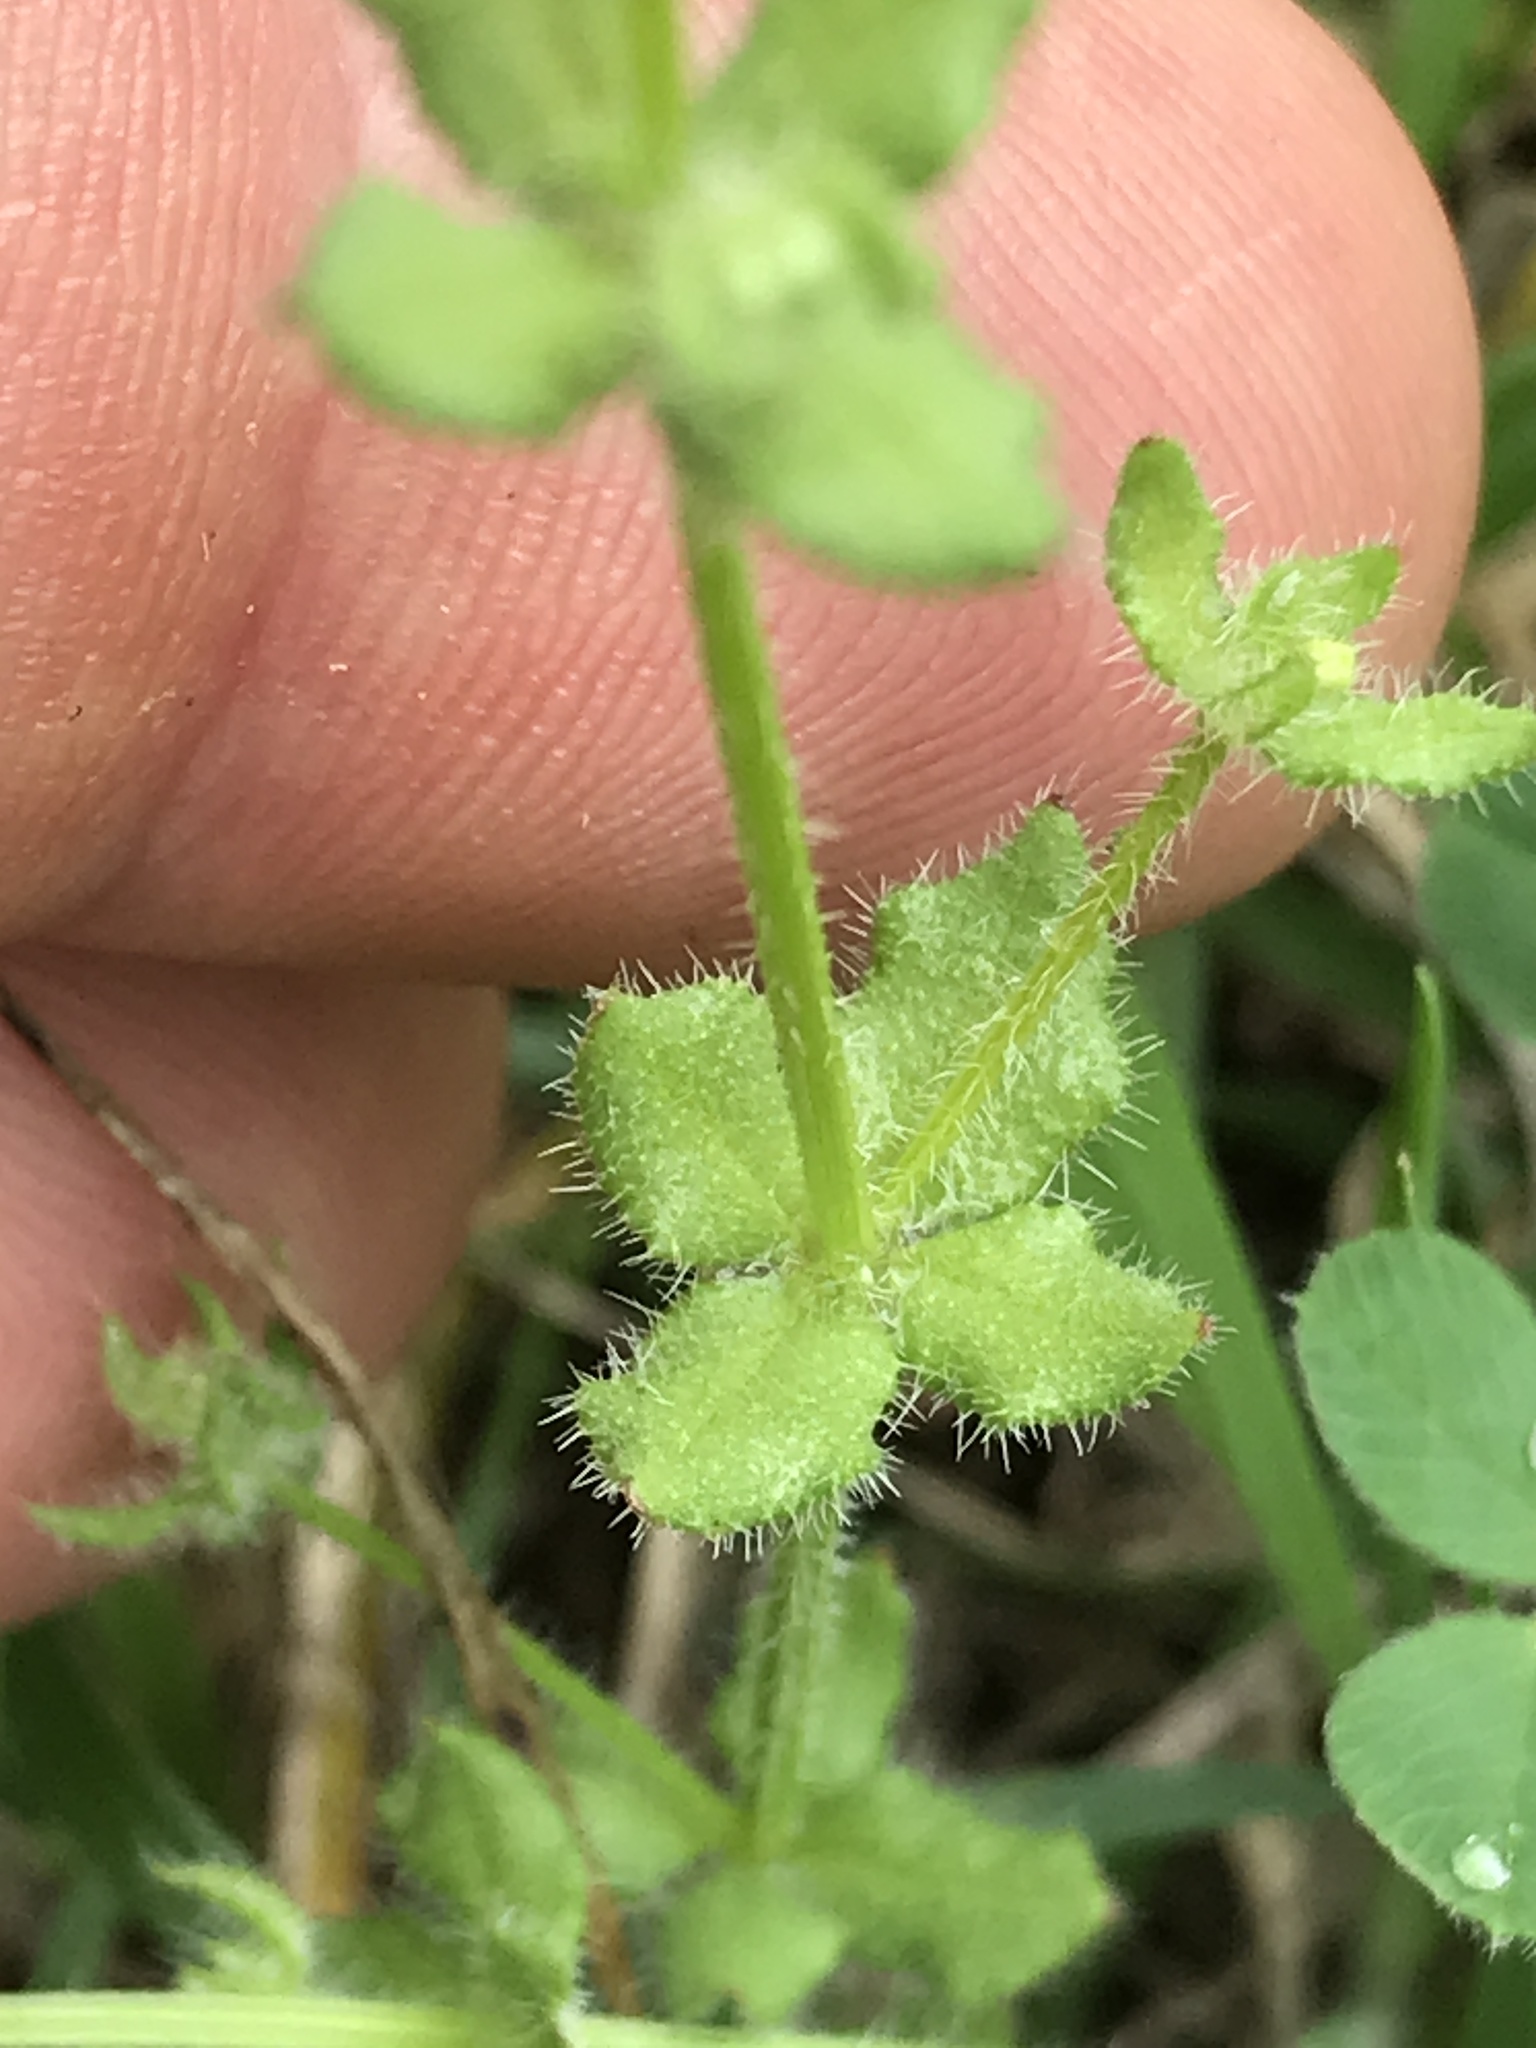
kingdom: Plantae
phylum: Tracheophyta
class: Magnoliopsida
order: Gentianales
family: Rubiaceae
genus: Galium
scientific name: Galium virgatum
